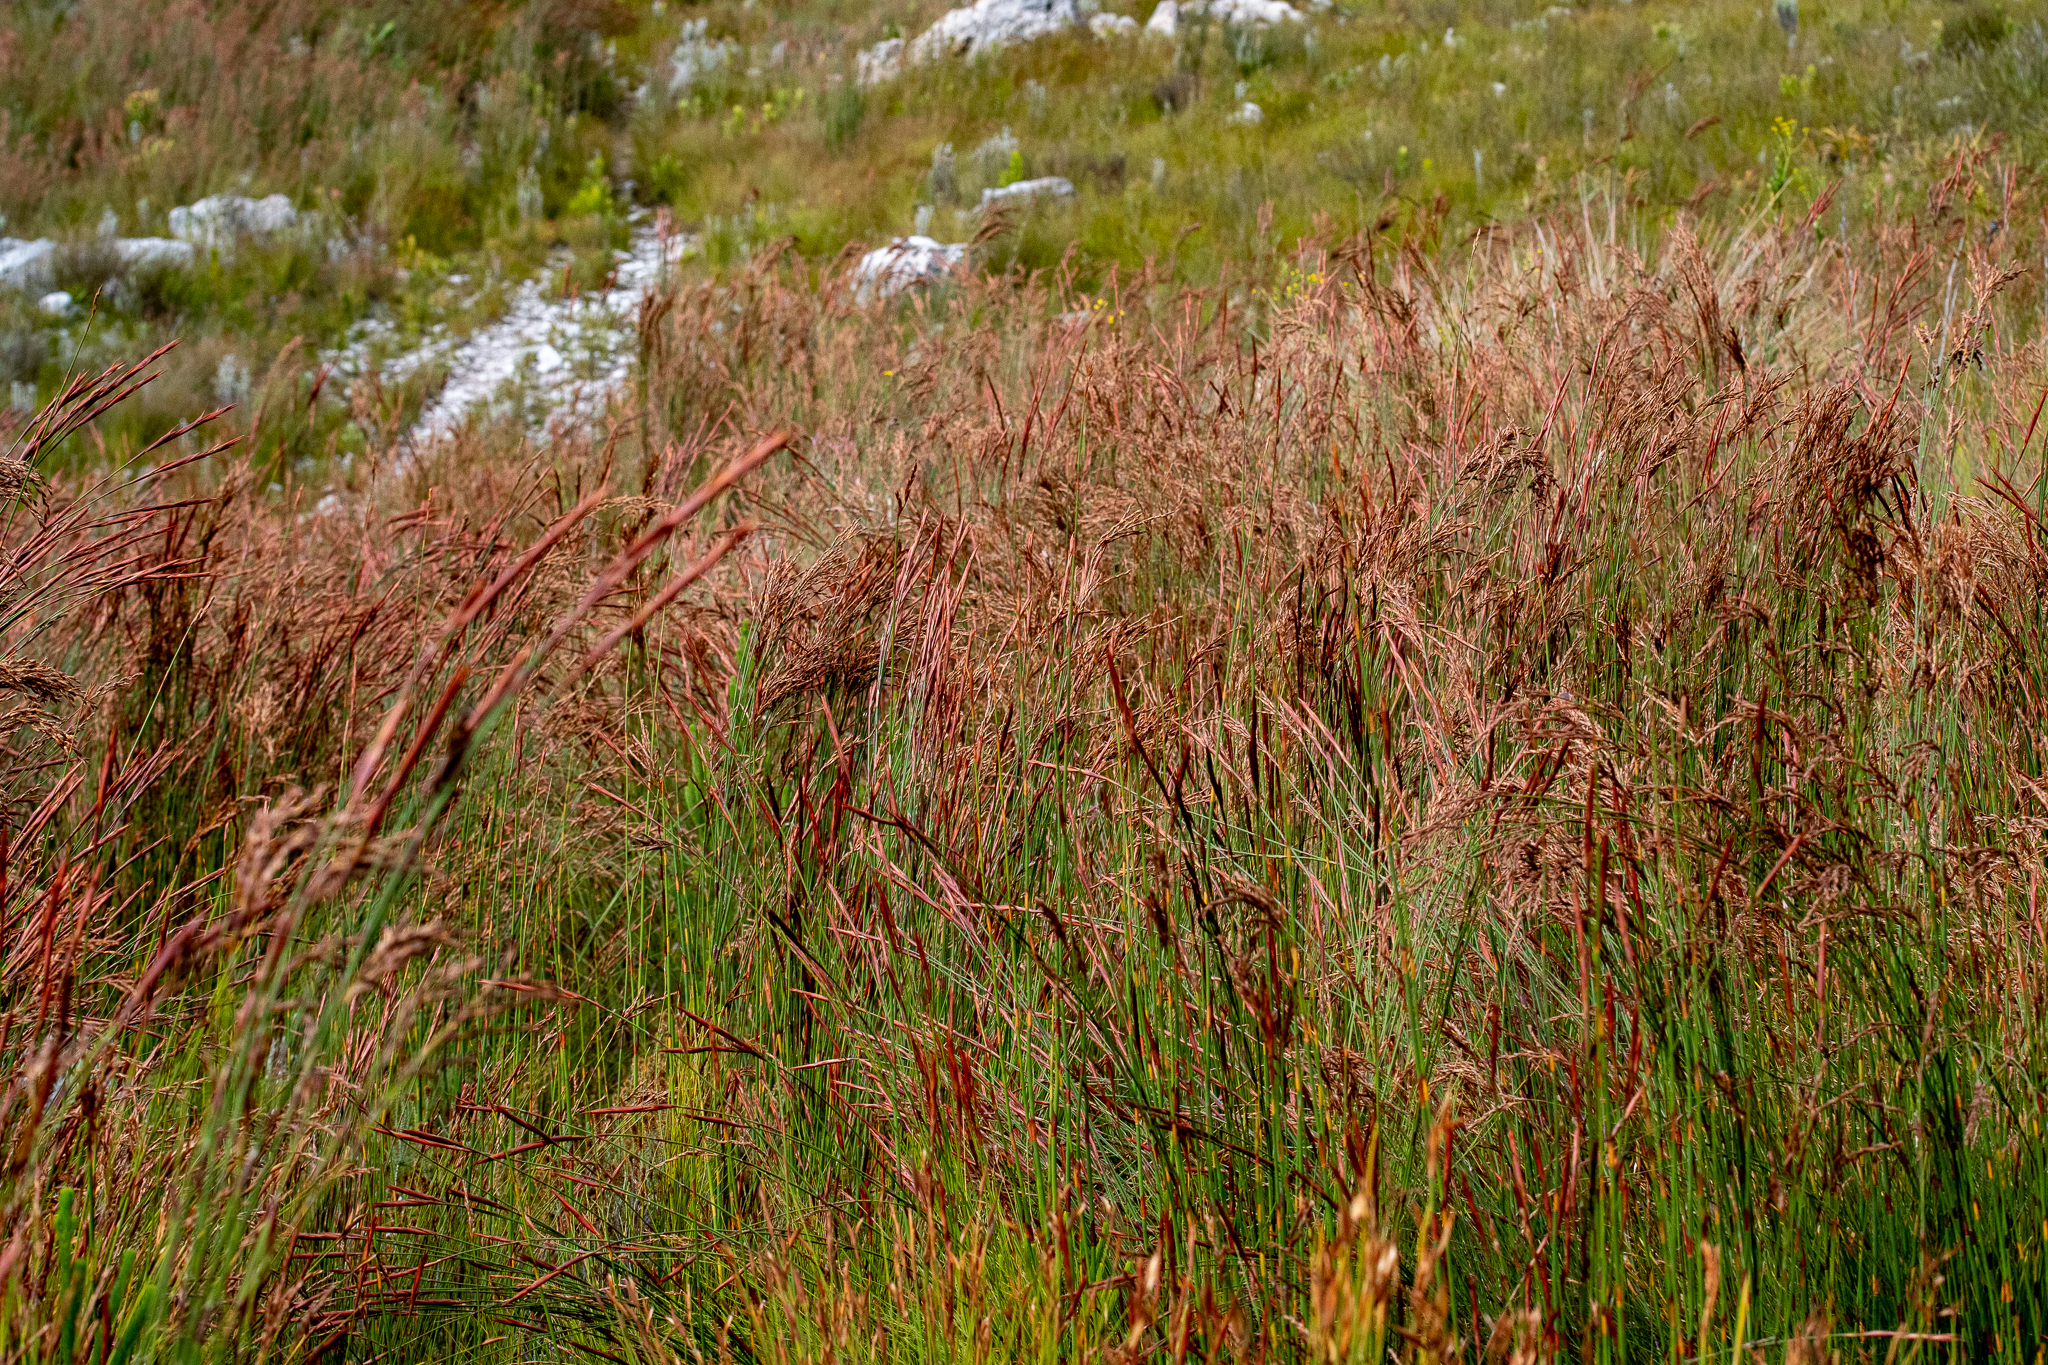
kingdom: Plantae
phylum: Tracheophyta
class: Liliopsida
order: Poales
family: Restionaceae
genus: Restio
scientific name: Restio dispar
